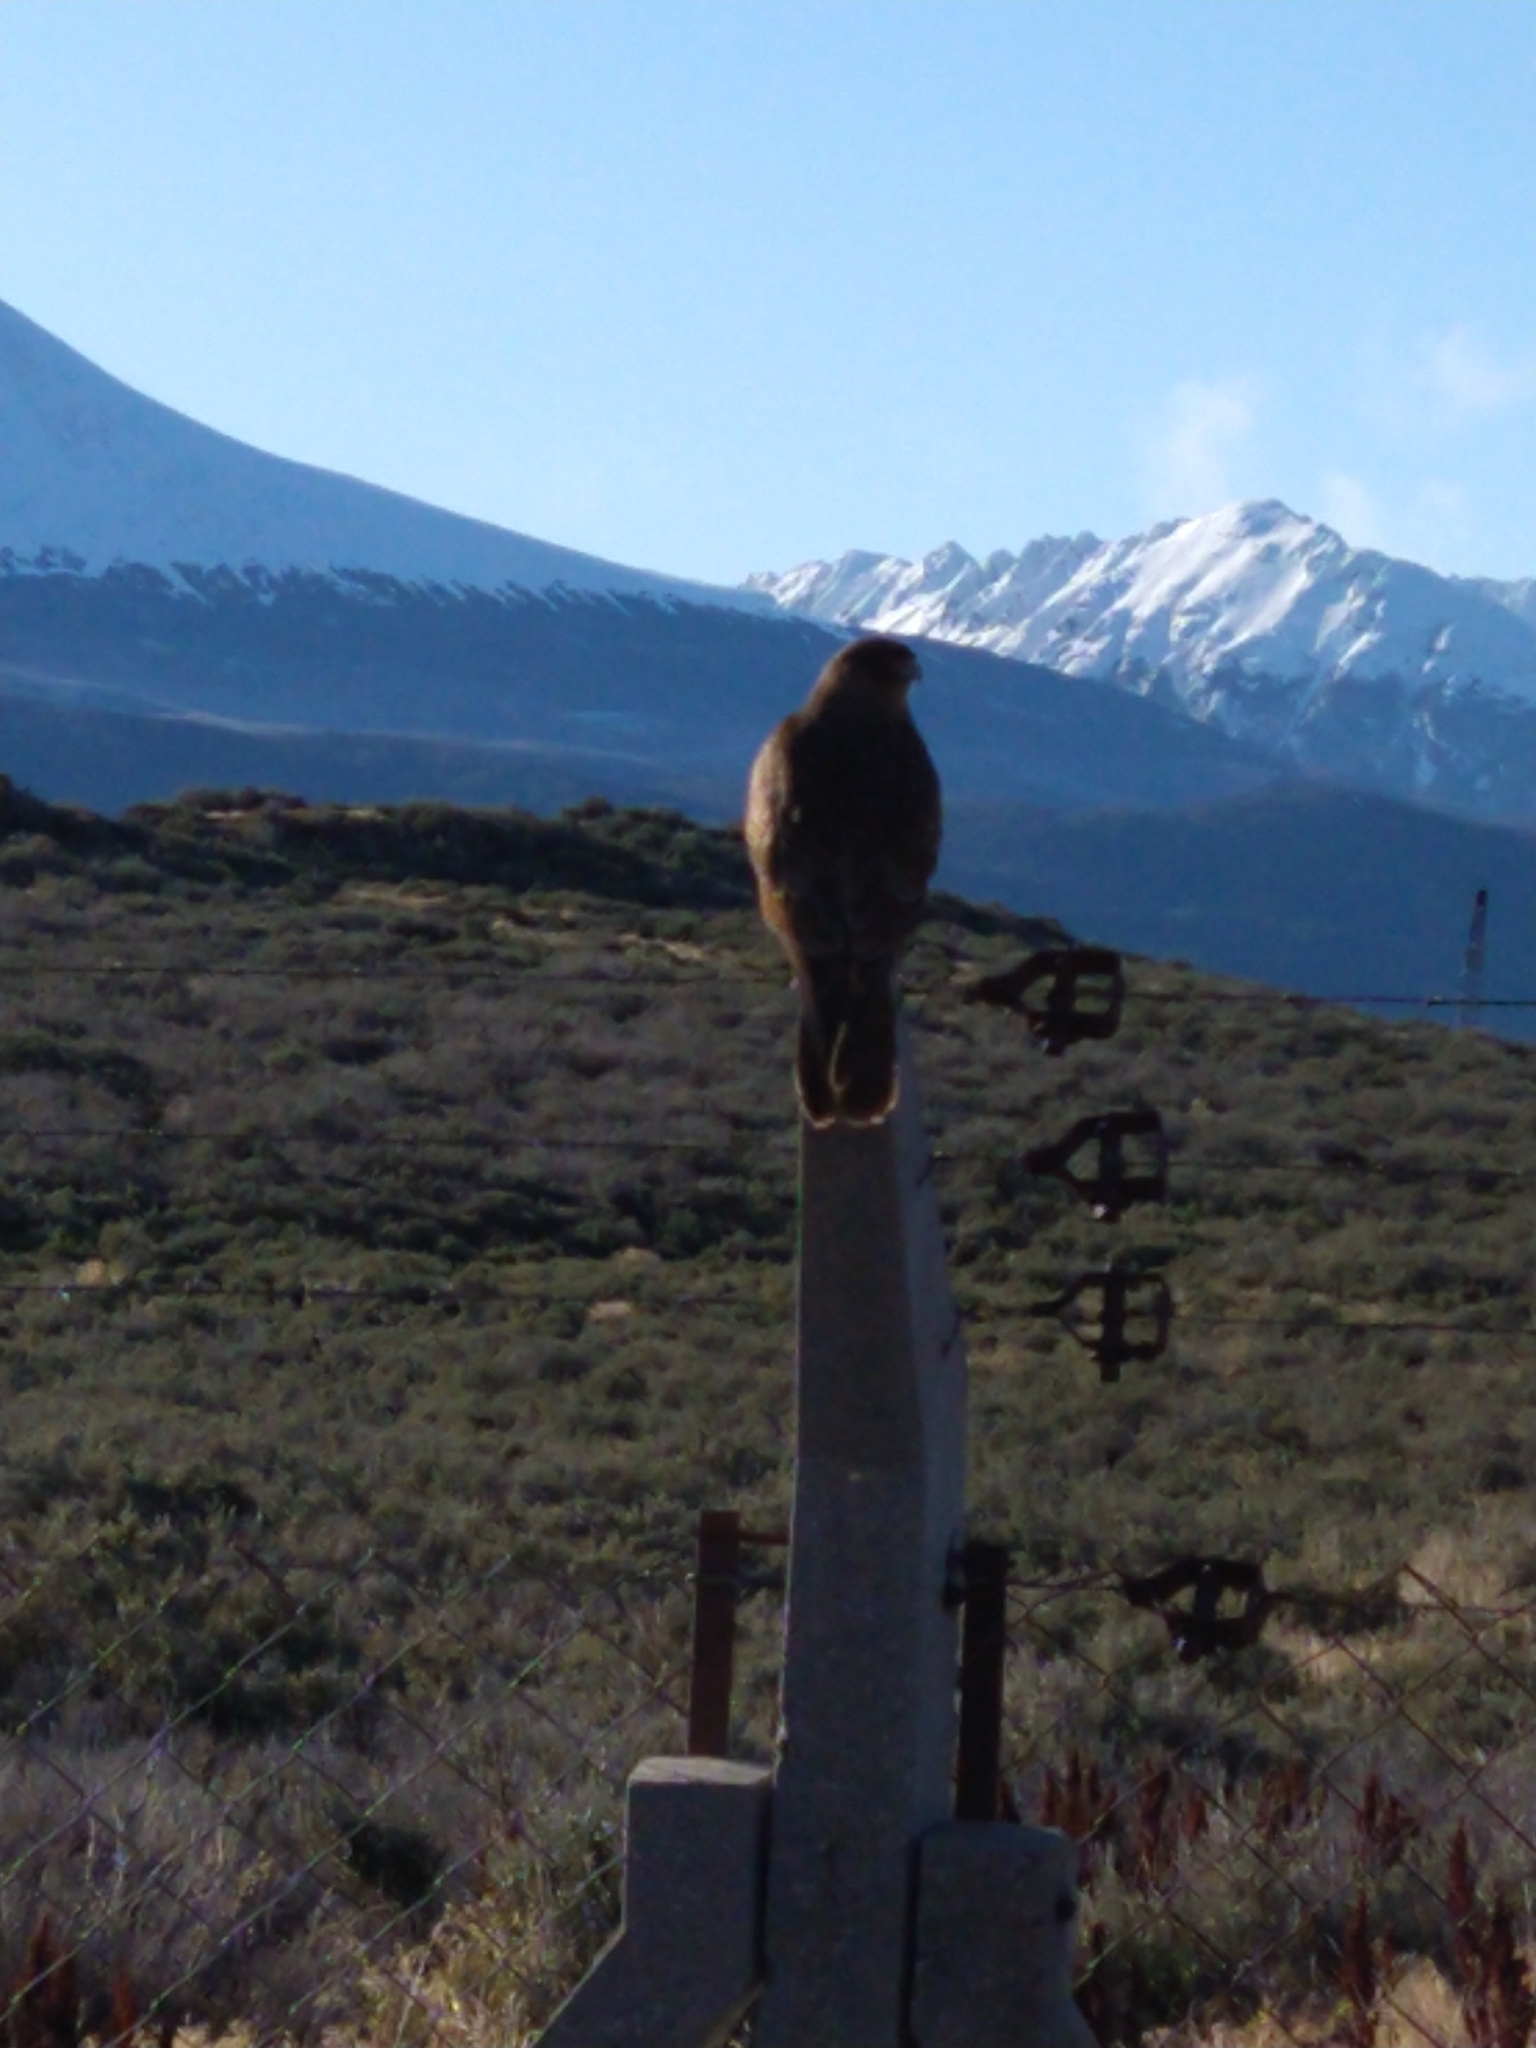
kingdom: Animalia
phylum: Chordata
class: Aves
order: Falconiformes
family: Falconidae
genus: Daptrius
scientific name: Daptrius
